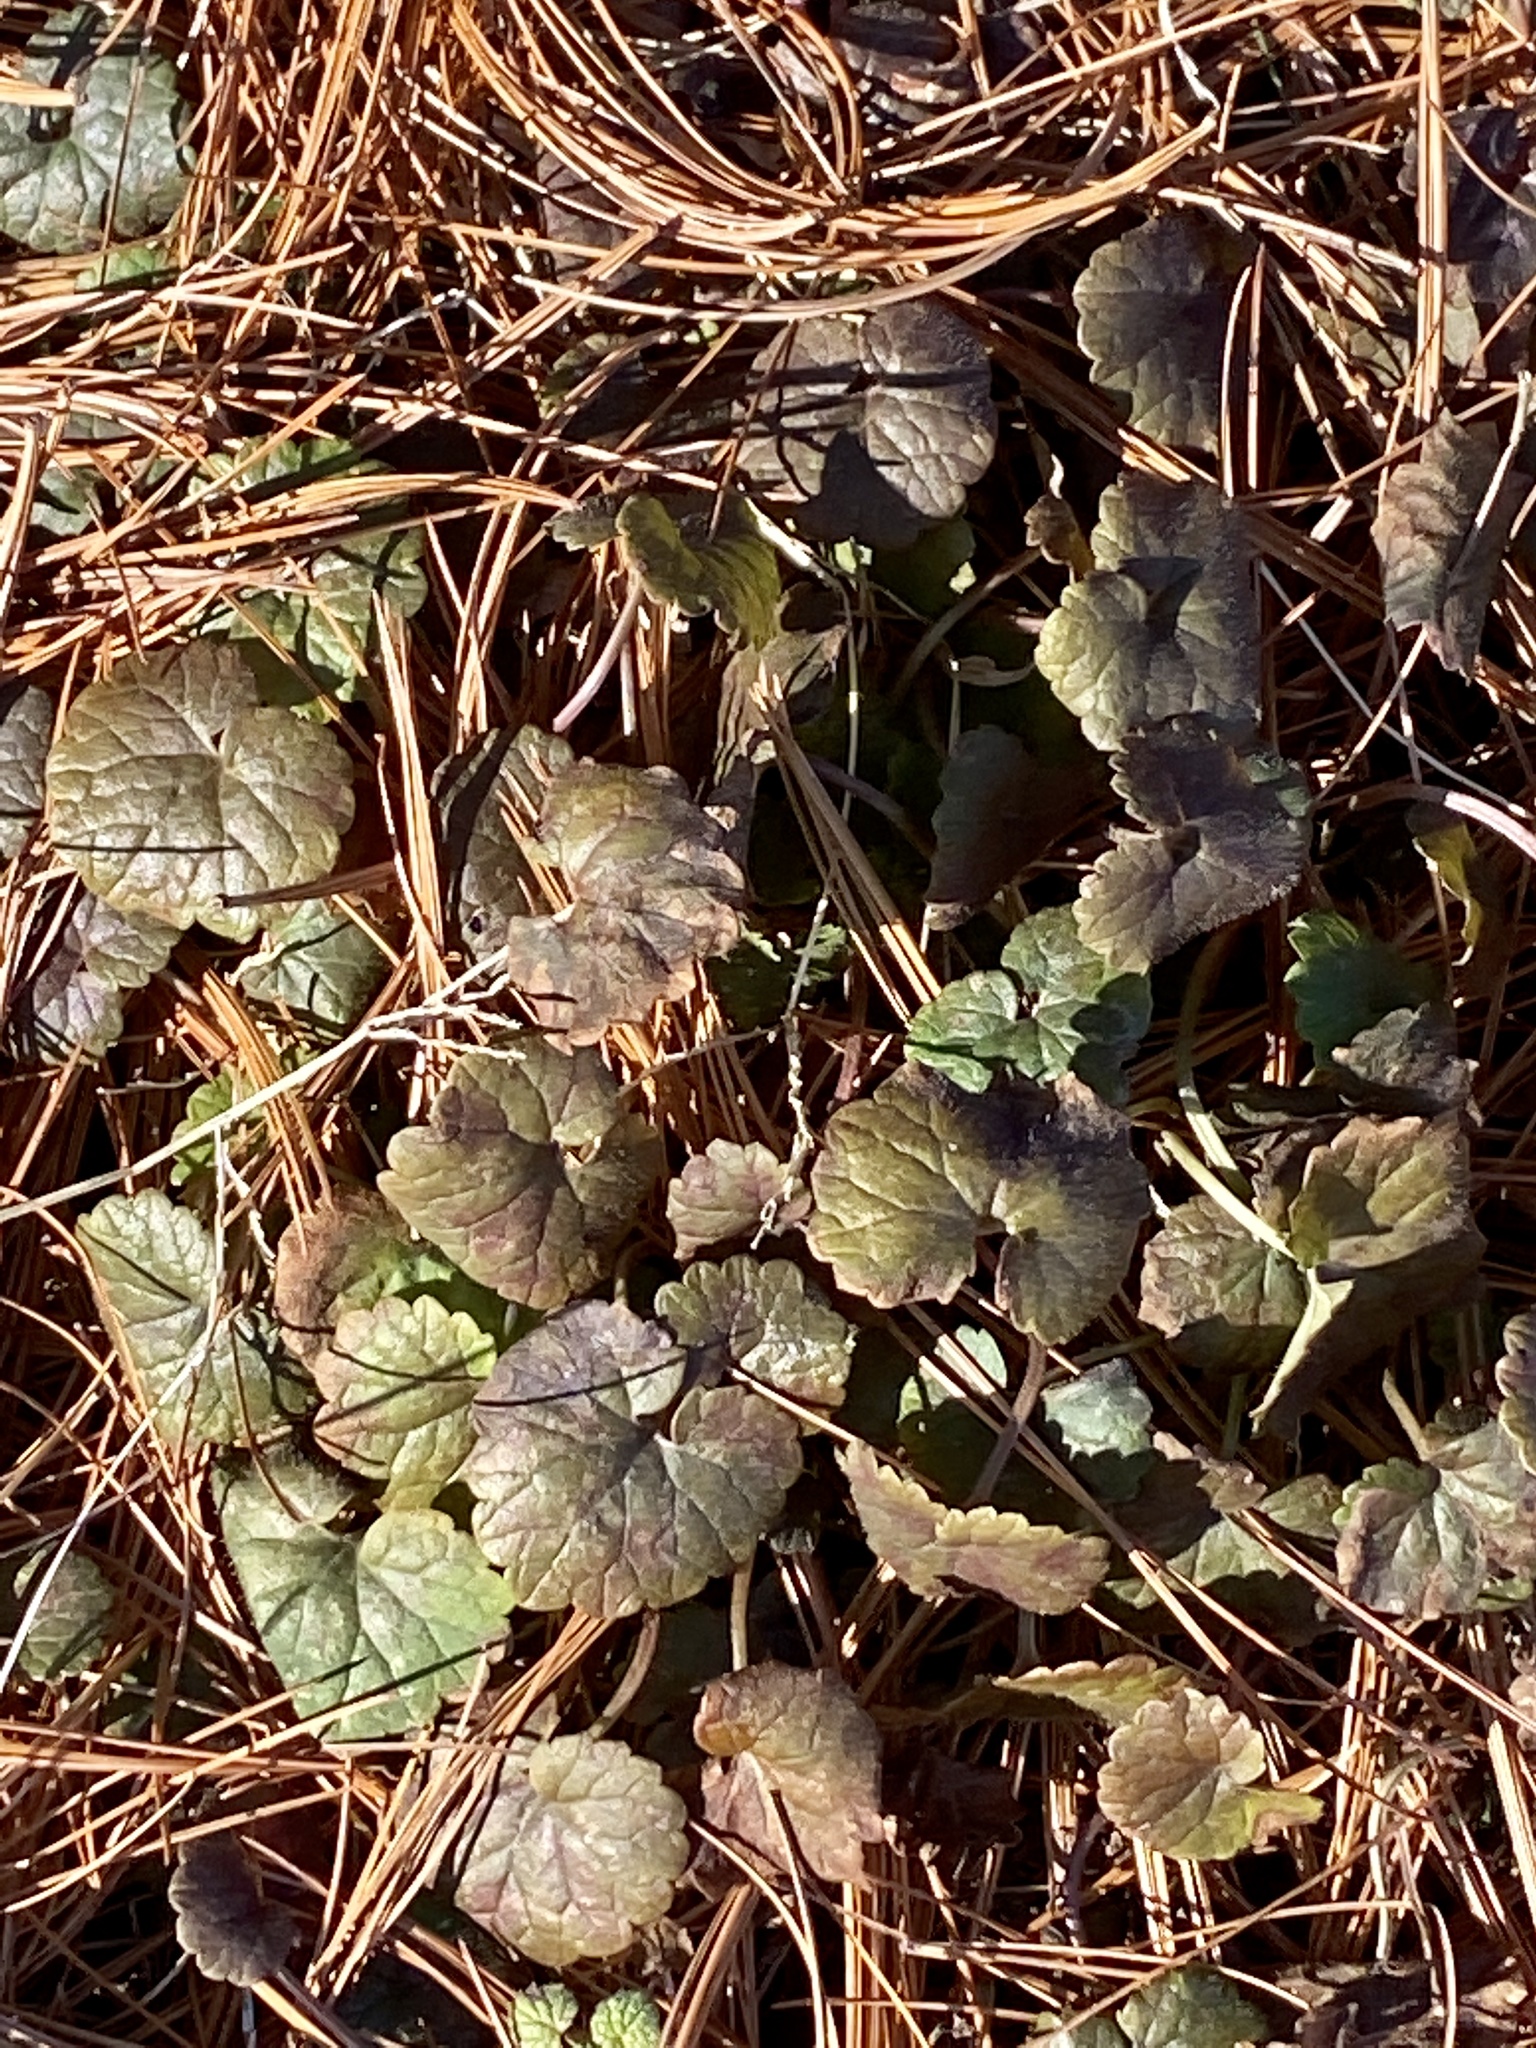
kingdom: Plantae
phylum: Tracheophyta
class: Magnoliopsida
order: Lamiales
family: Lamiaceae
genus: Glechoma
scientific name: Glechoma hederacea
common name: Ground ivy
